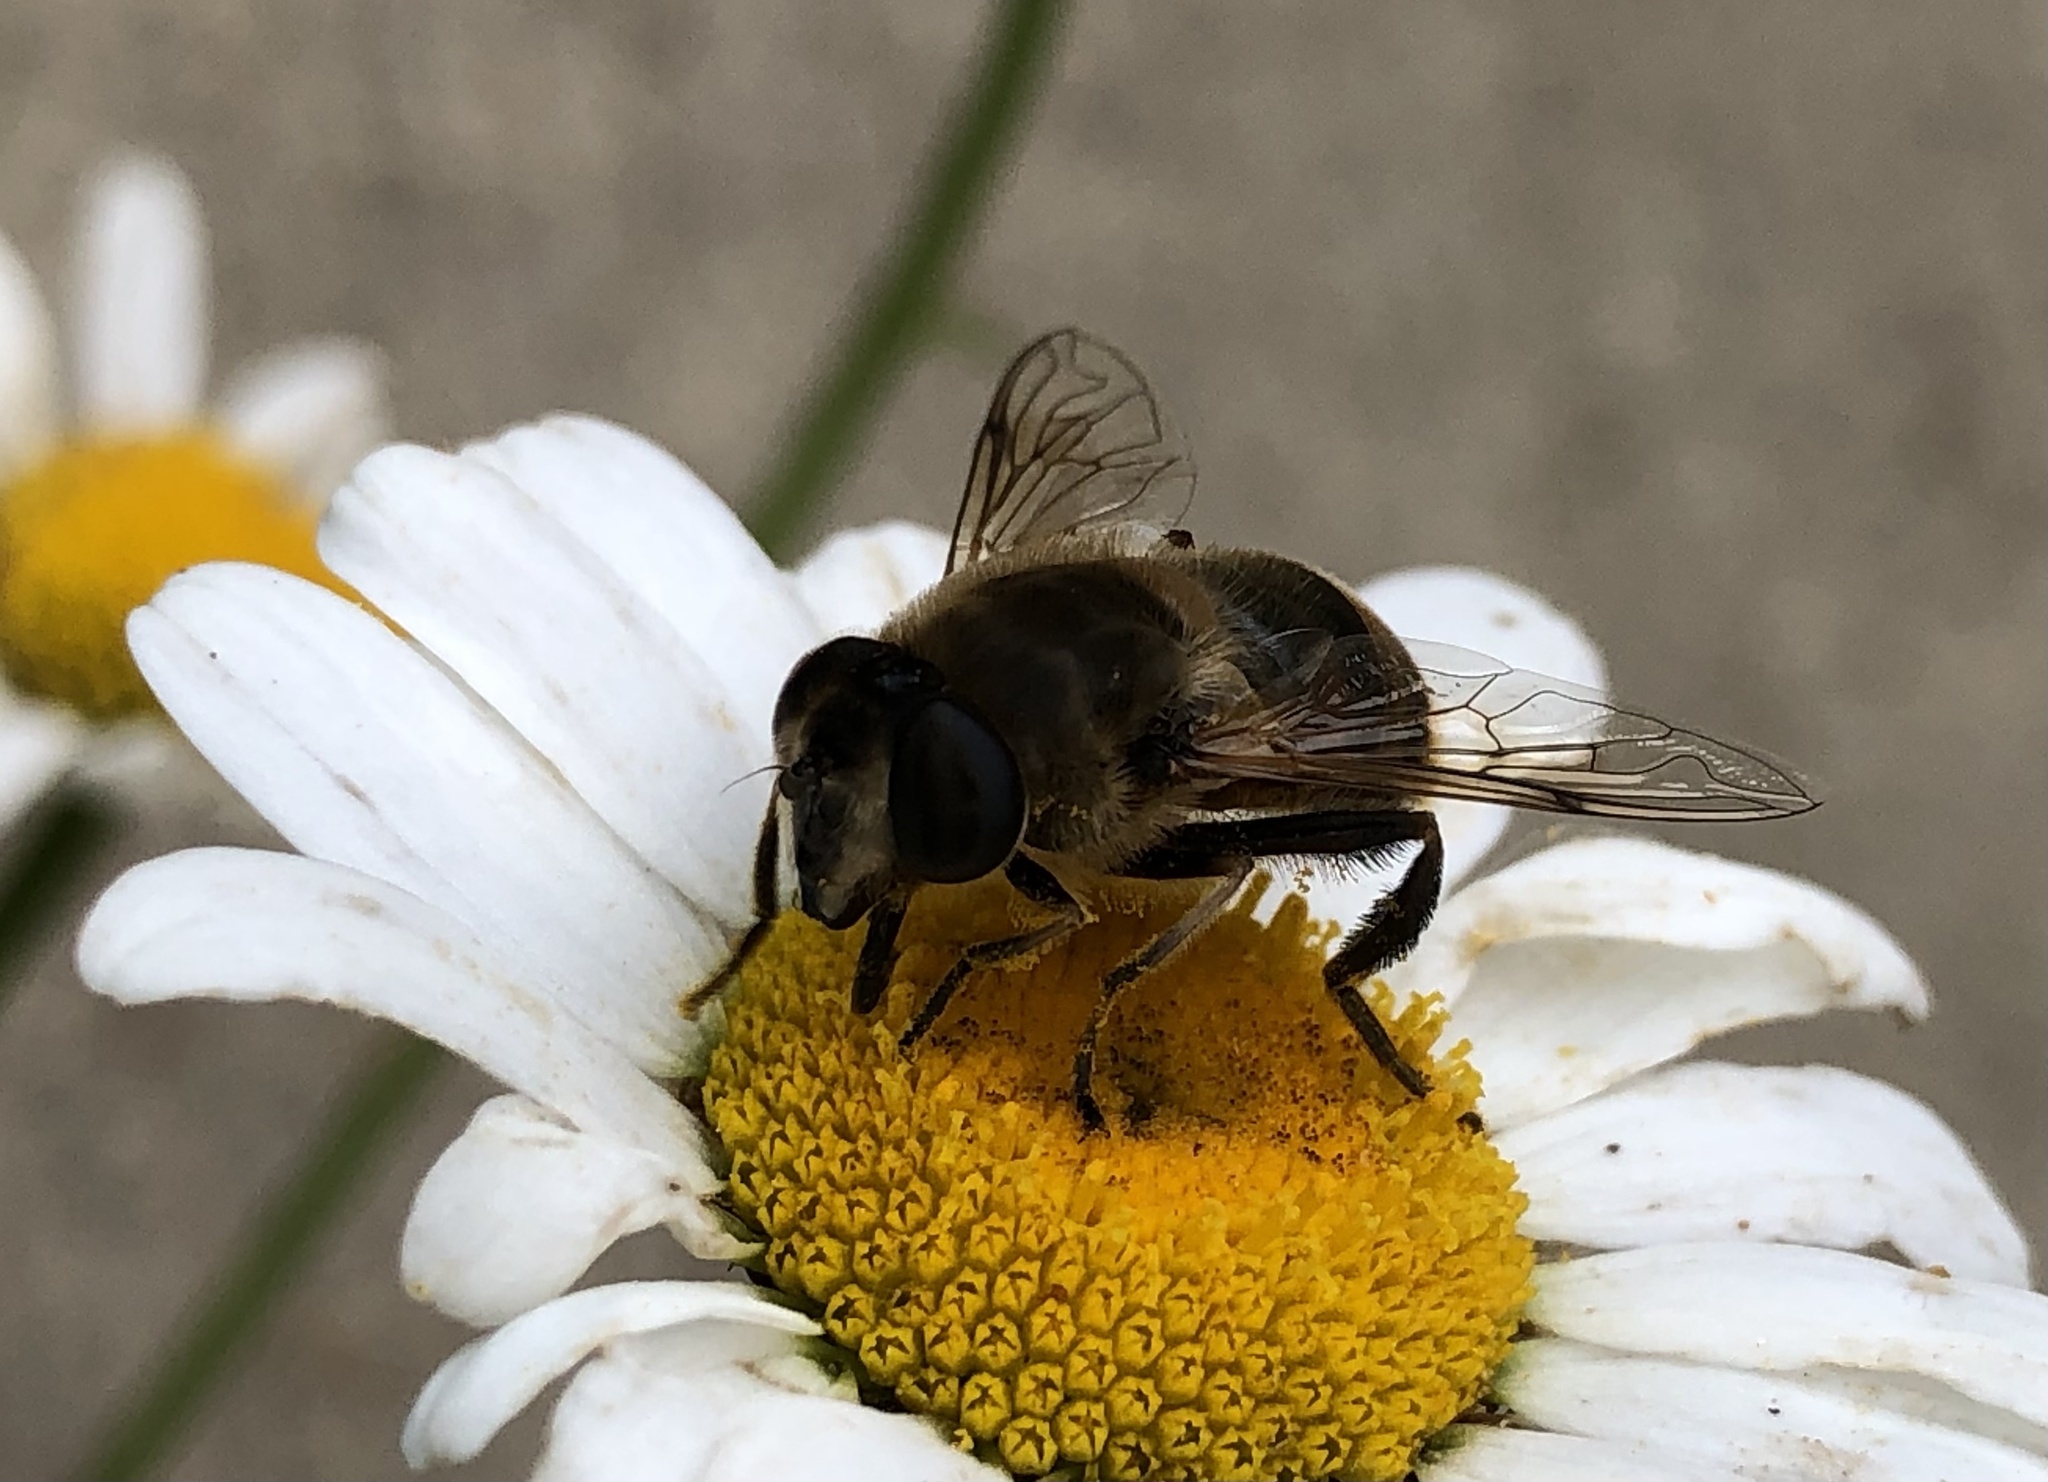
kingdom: Animalia
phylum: Arthropoda
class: Insecta
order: Diptera
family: Syrphidae
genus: Eristalis
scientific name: Eristalis tenax
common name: Drone fly
